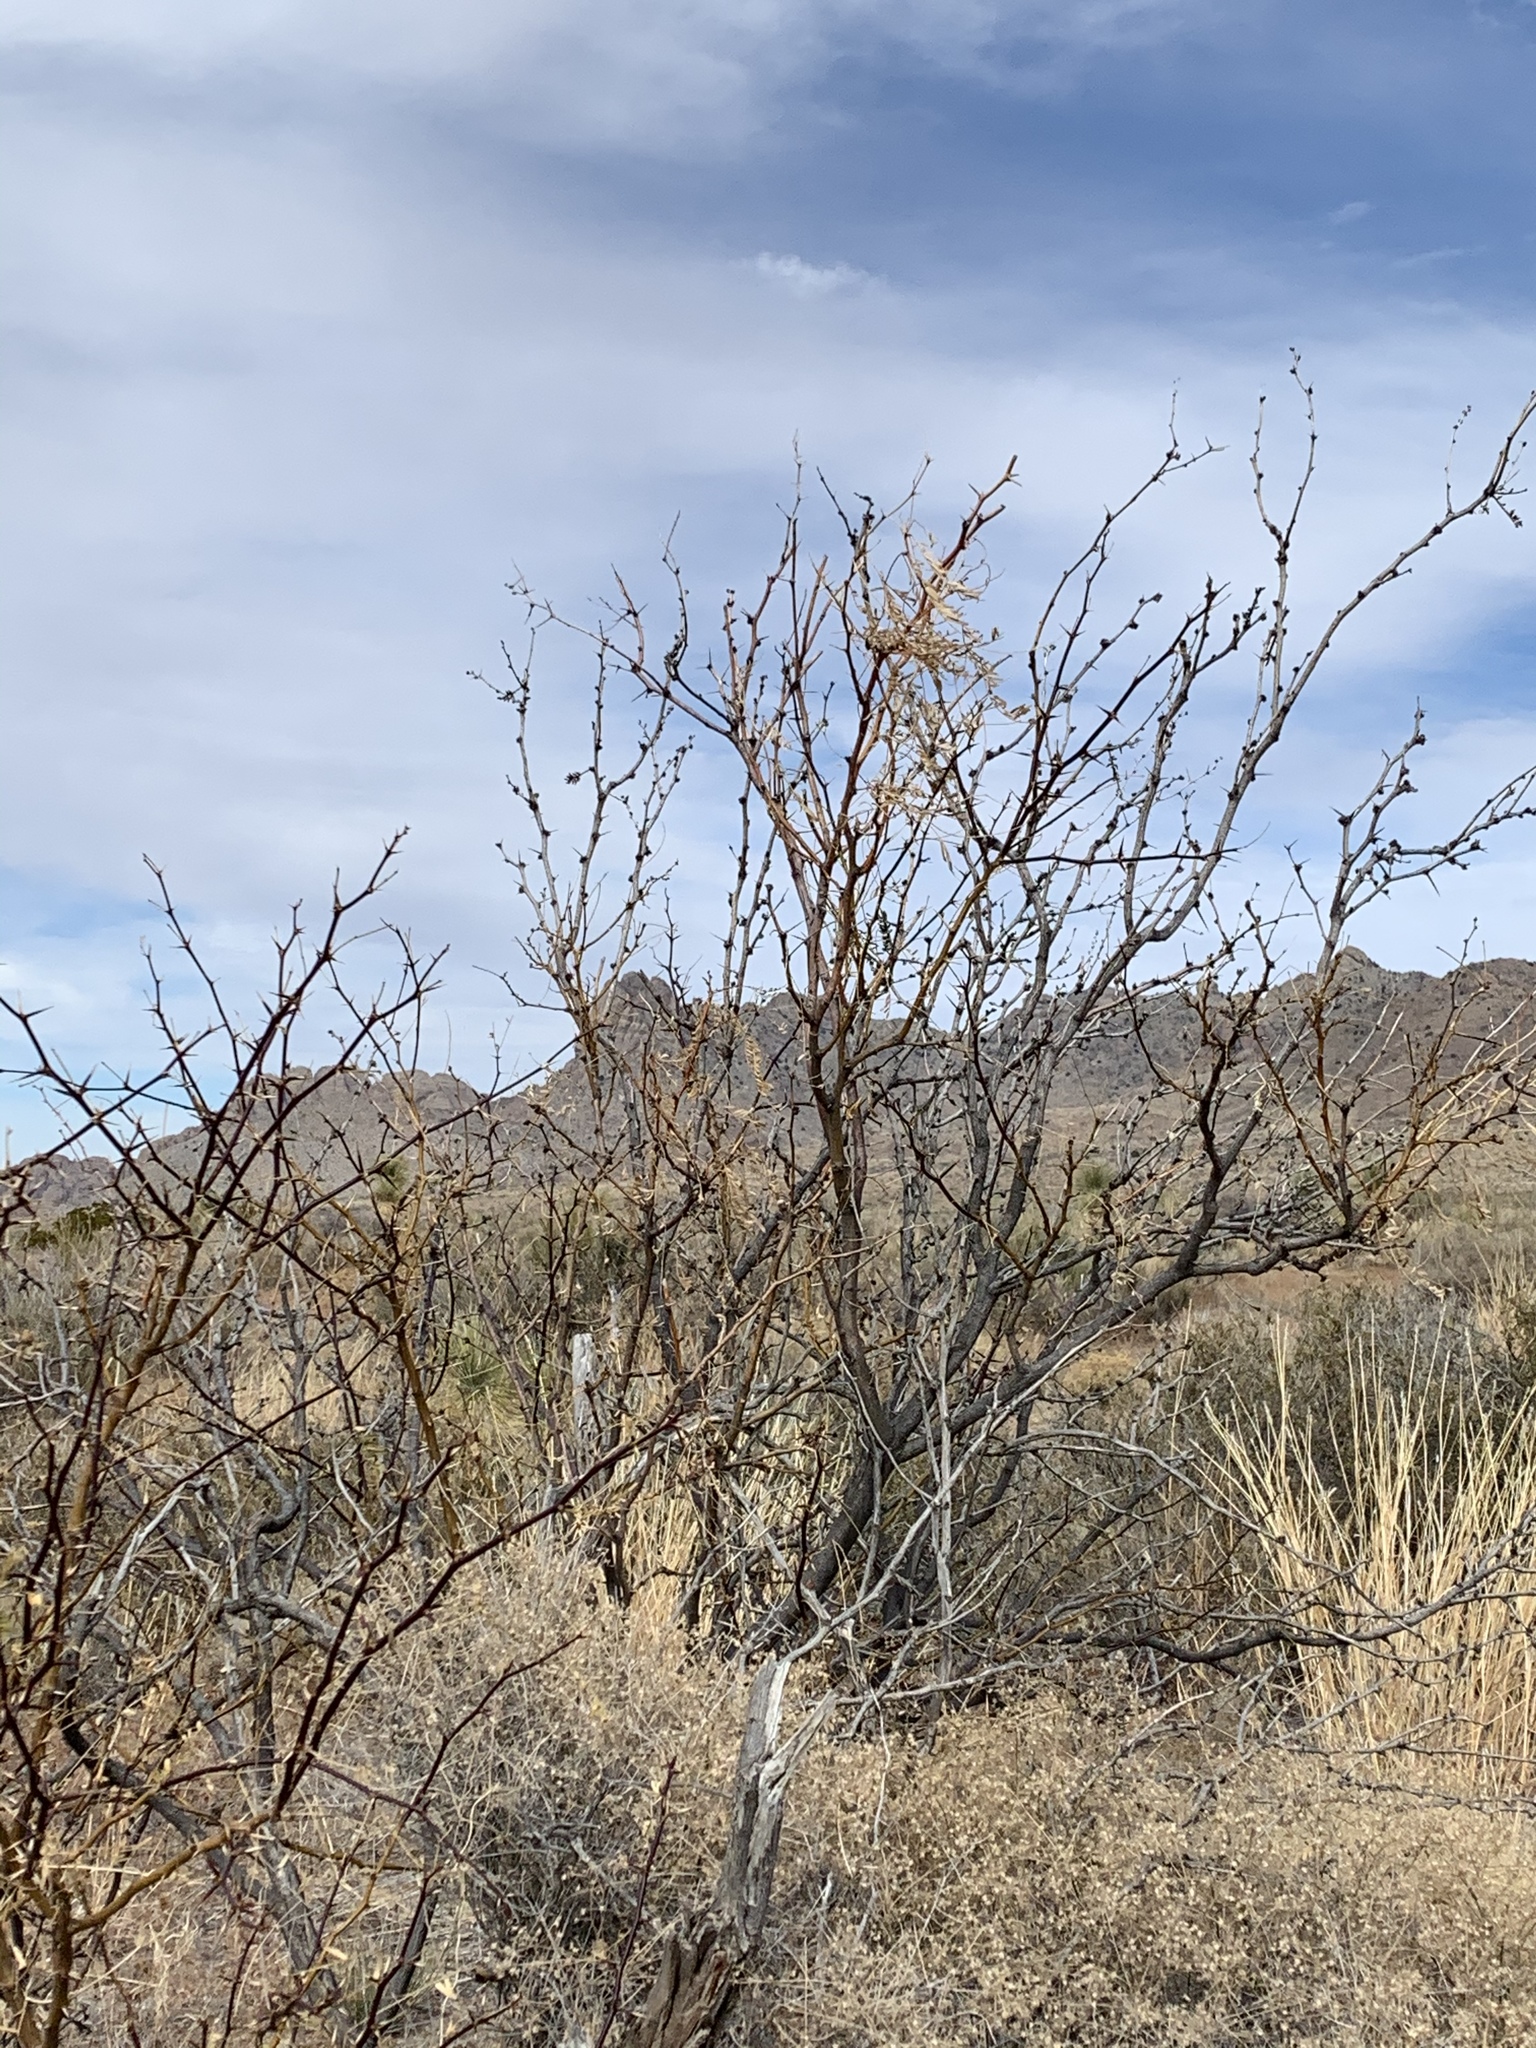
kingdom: Plantae
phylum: Tracheophyta
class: Magnoliopsida
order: Fabales
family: Fabaceae
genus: Prosopis
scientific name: Prosopis glandulosa
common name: Honey mesquite
